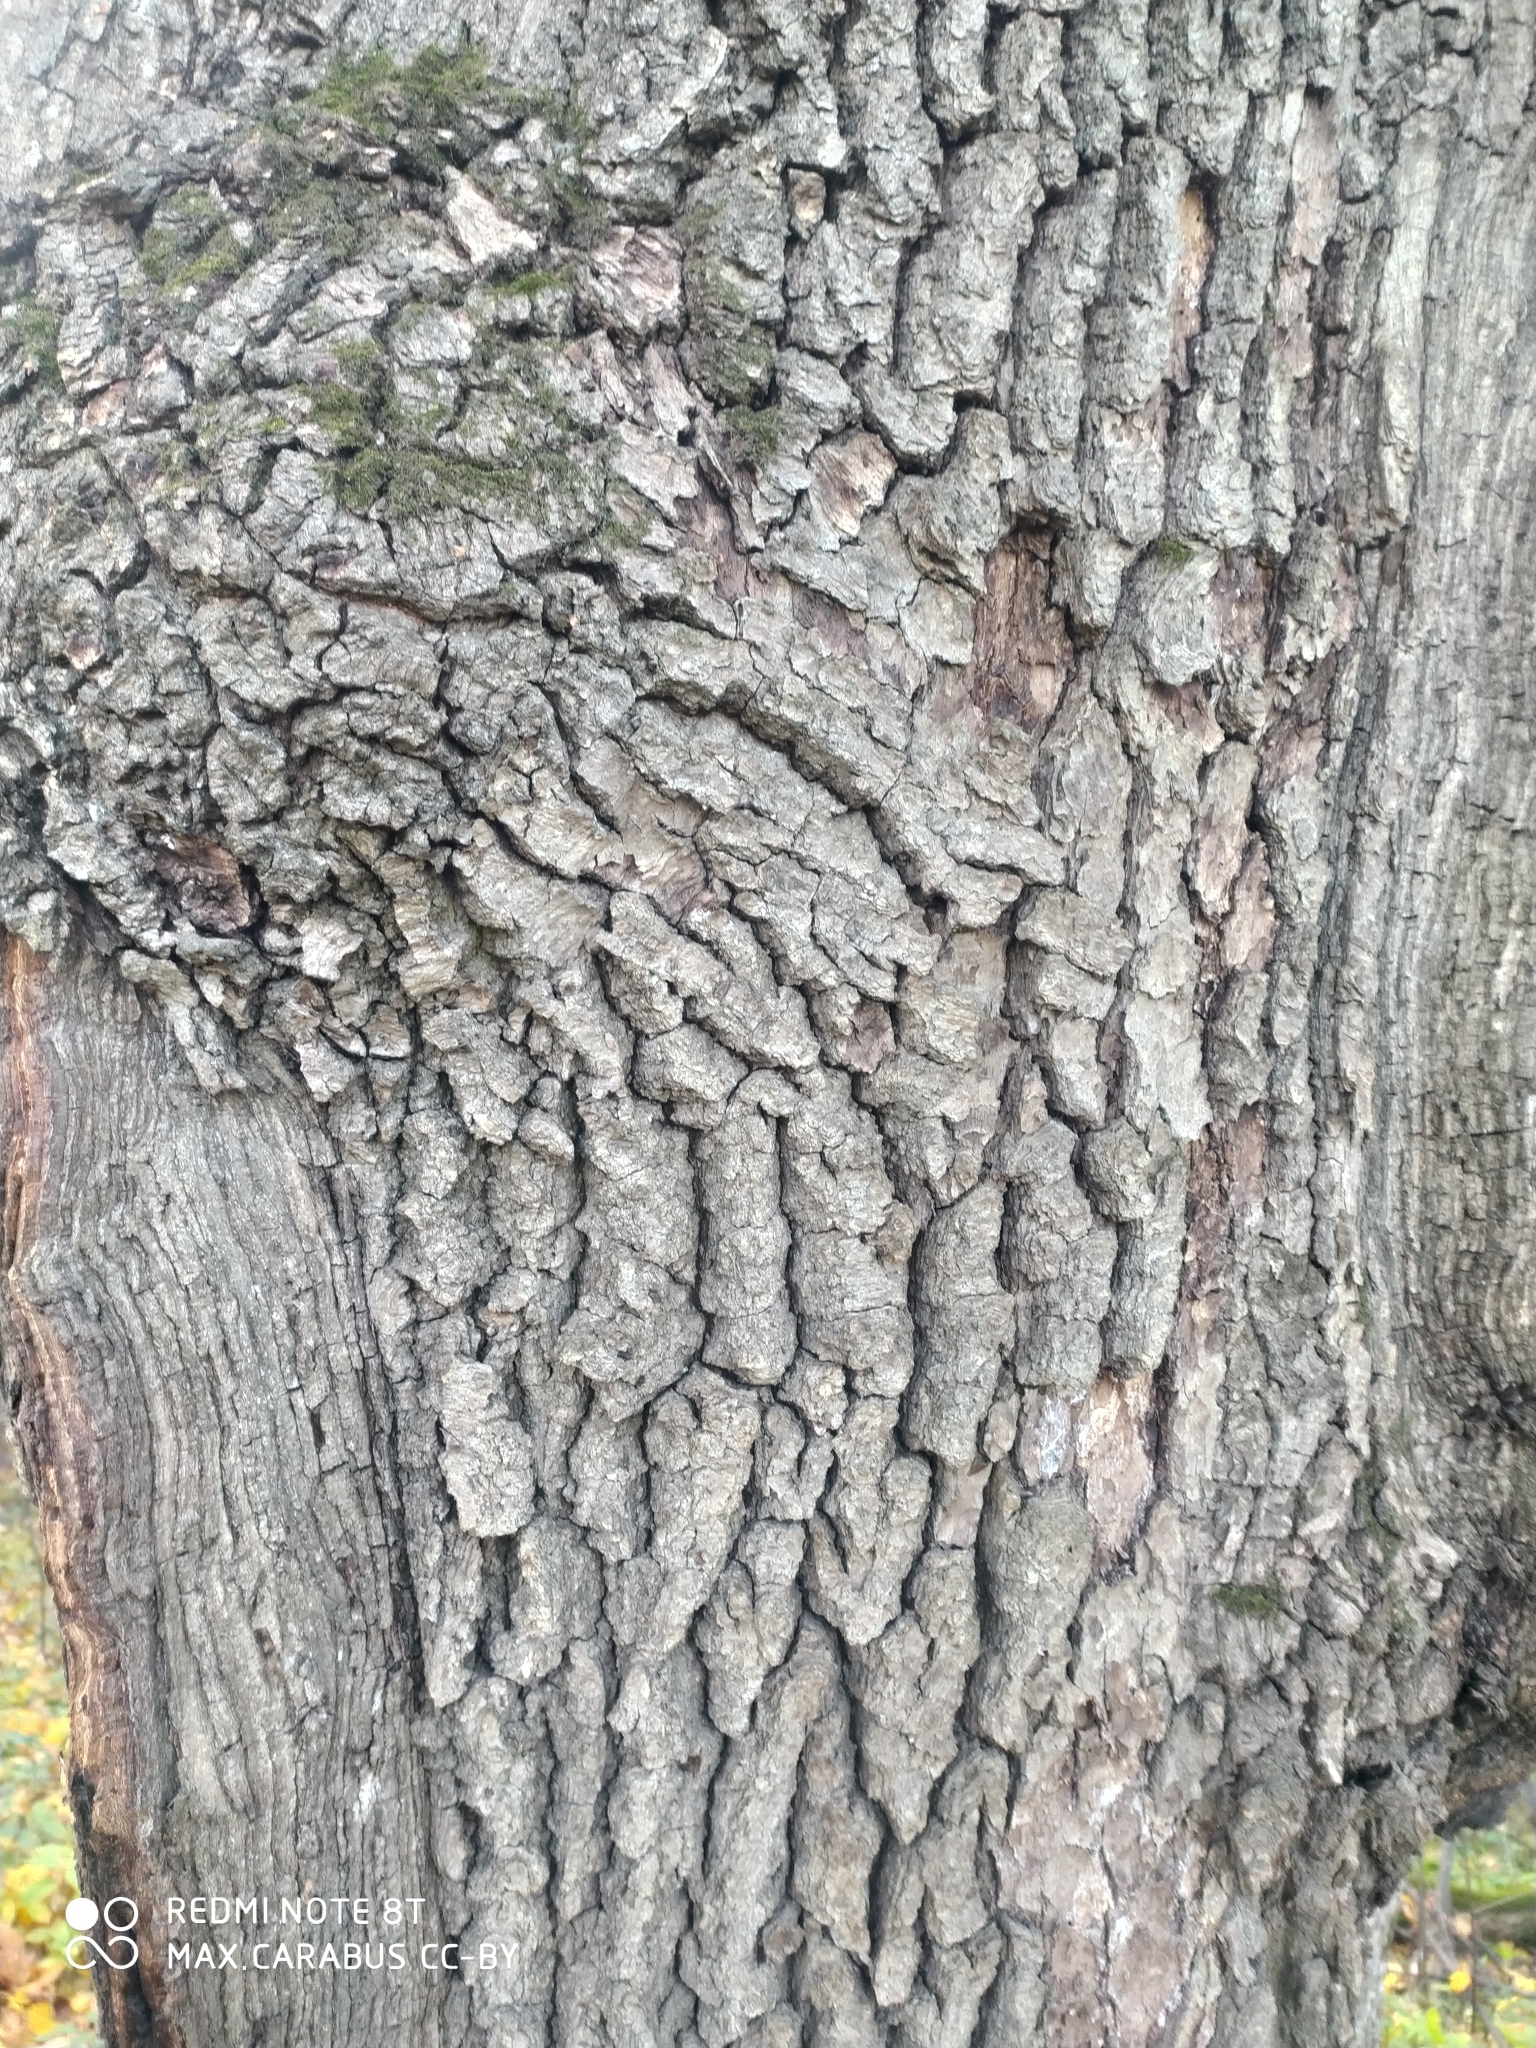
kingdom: Plantae
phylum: Tracheophyta
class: Magnoliopsida
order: Fagales
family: Fagaceae
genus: Quercus
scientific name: Quercus robur
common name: Pedunculate oak
